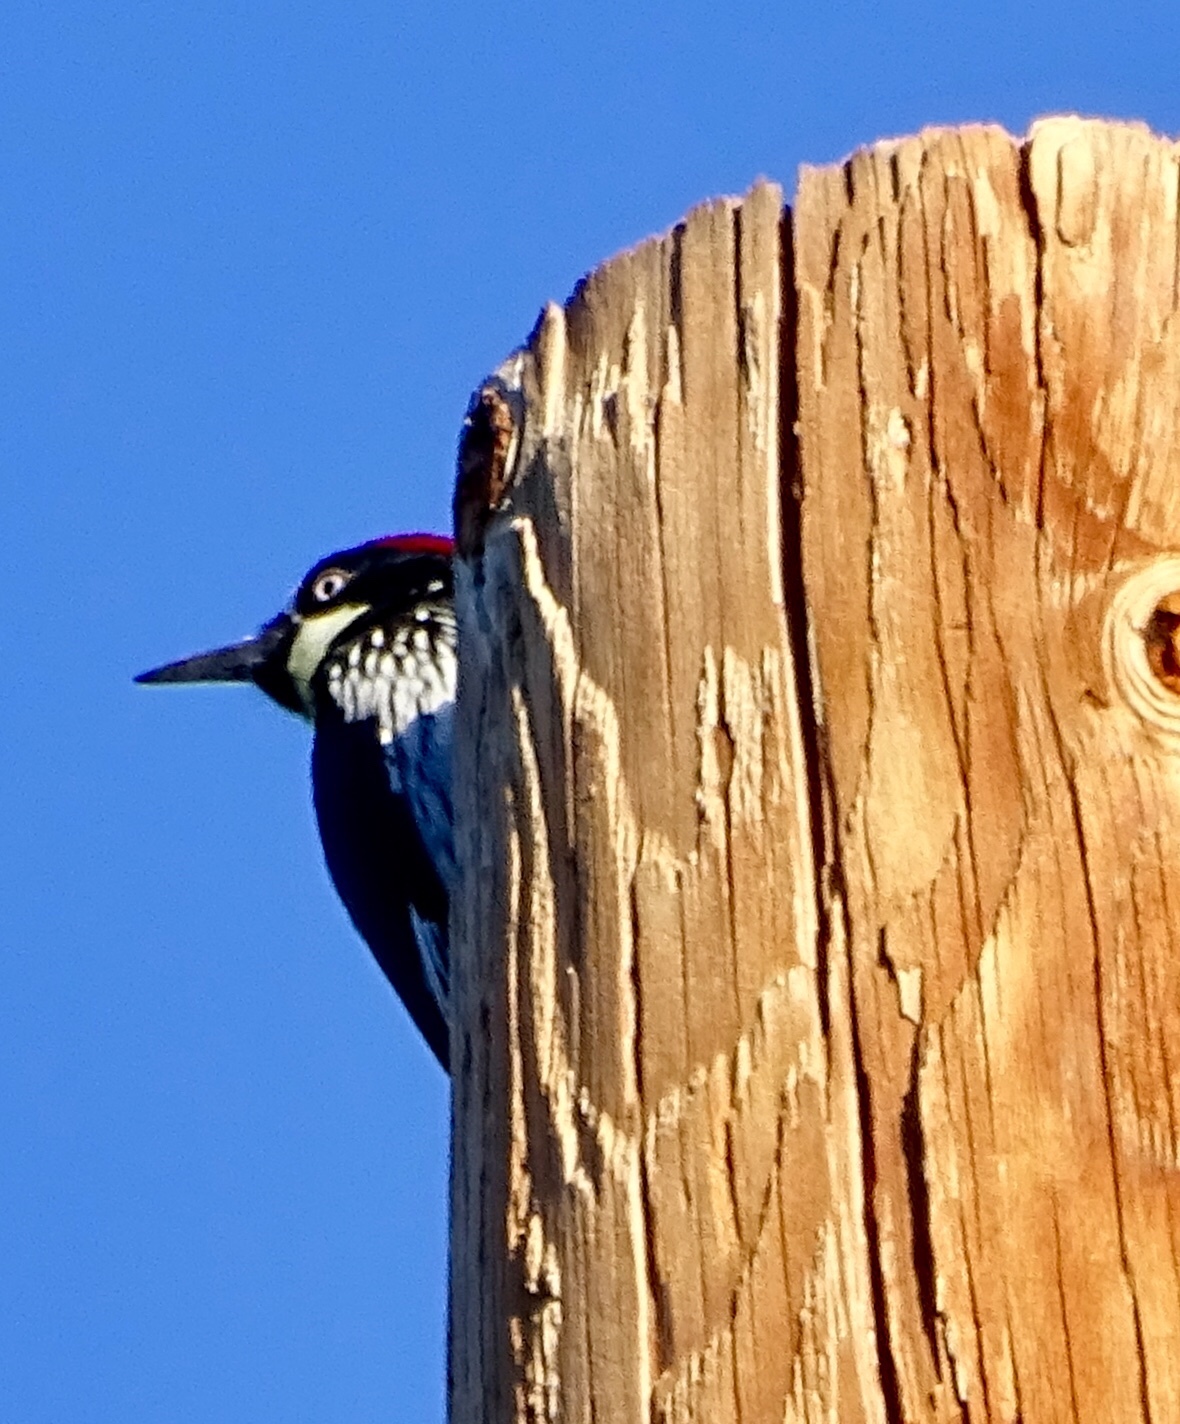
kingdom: Animalia
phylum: Chordata
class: Aves
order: Piciformes
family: Picidae
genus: Melanerpes
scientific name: Melanerpes formicivorus
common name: Acorn woodpecker
